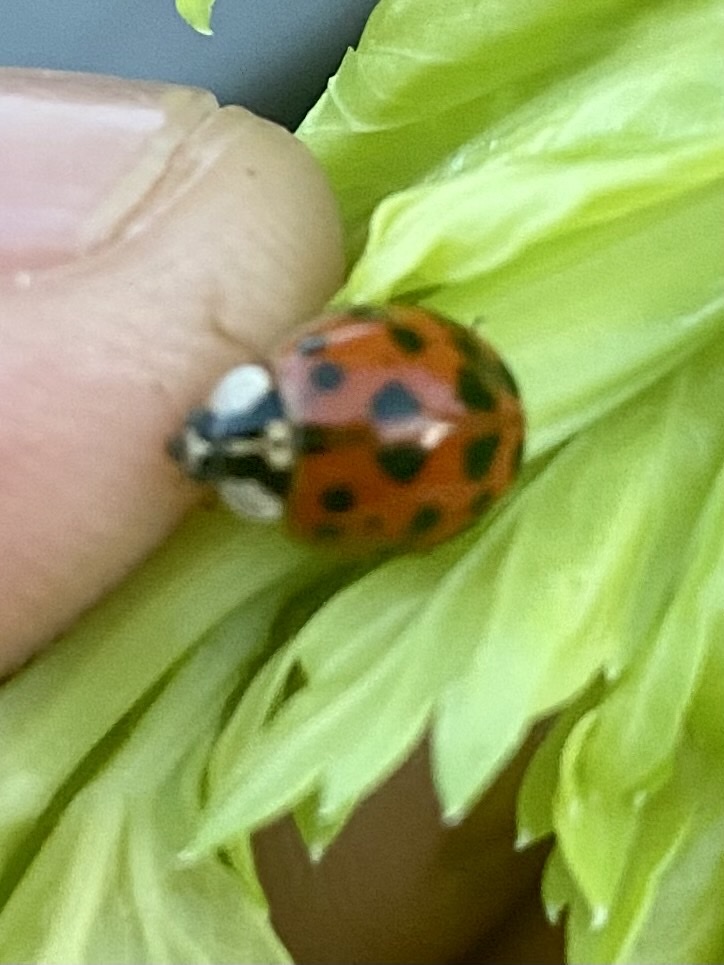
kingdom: Animalia
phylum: Arthropoda
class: Insecta
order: Coleoptera
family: Coccinellidae
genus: Harmonia
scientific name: Harmonia axyridis
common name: Harlequin ladybird
